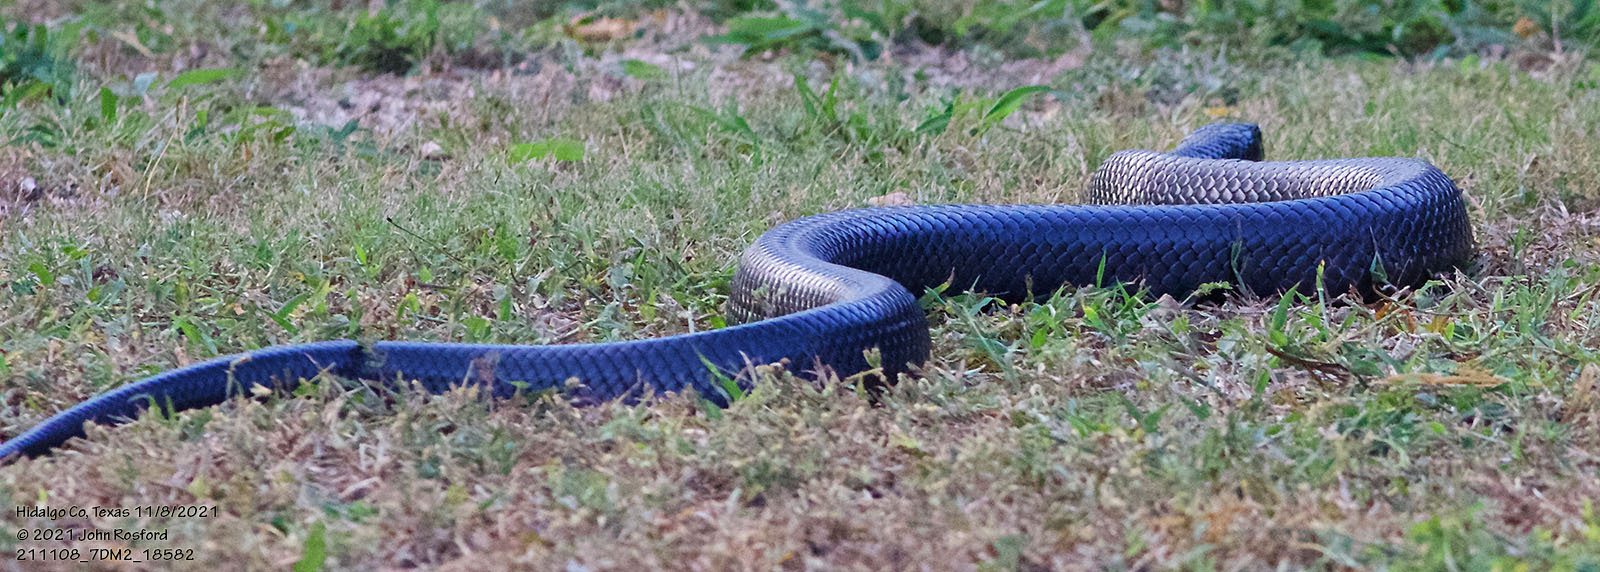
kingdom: Animalia
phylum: Chordata
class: Squamata
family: Colubridae
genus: Drymarchon
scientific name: Drymarchon melanurus
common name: Central american indigo snake
